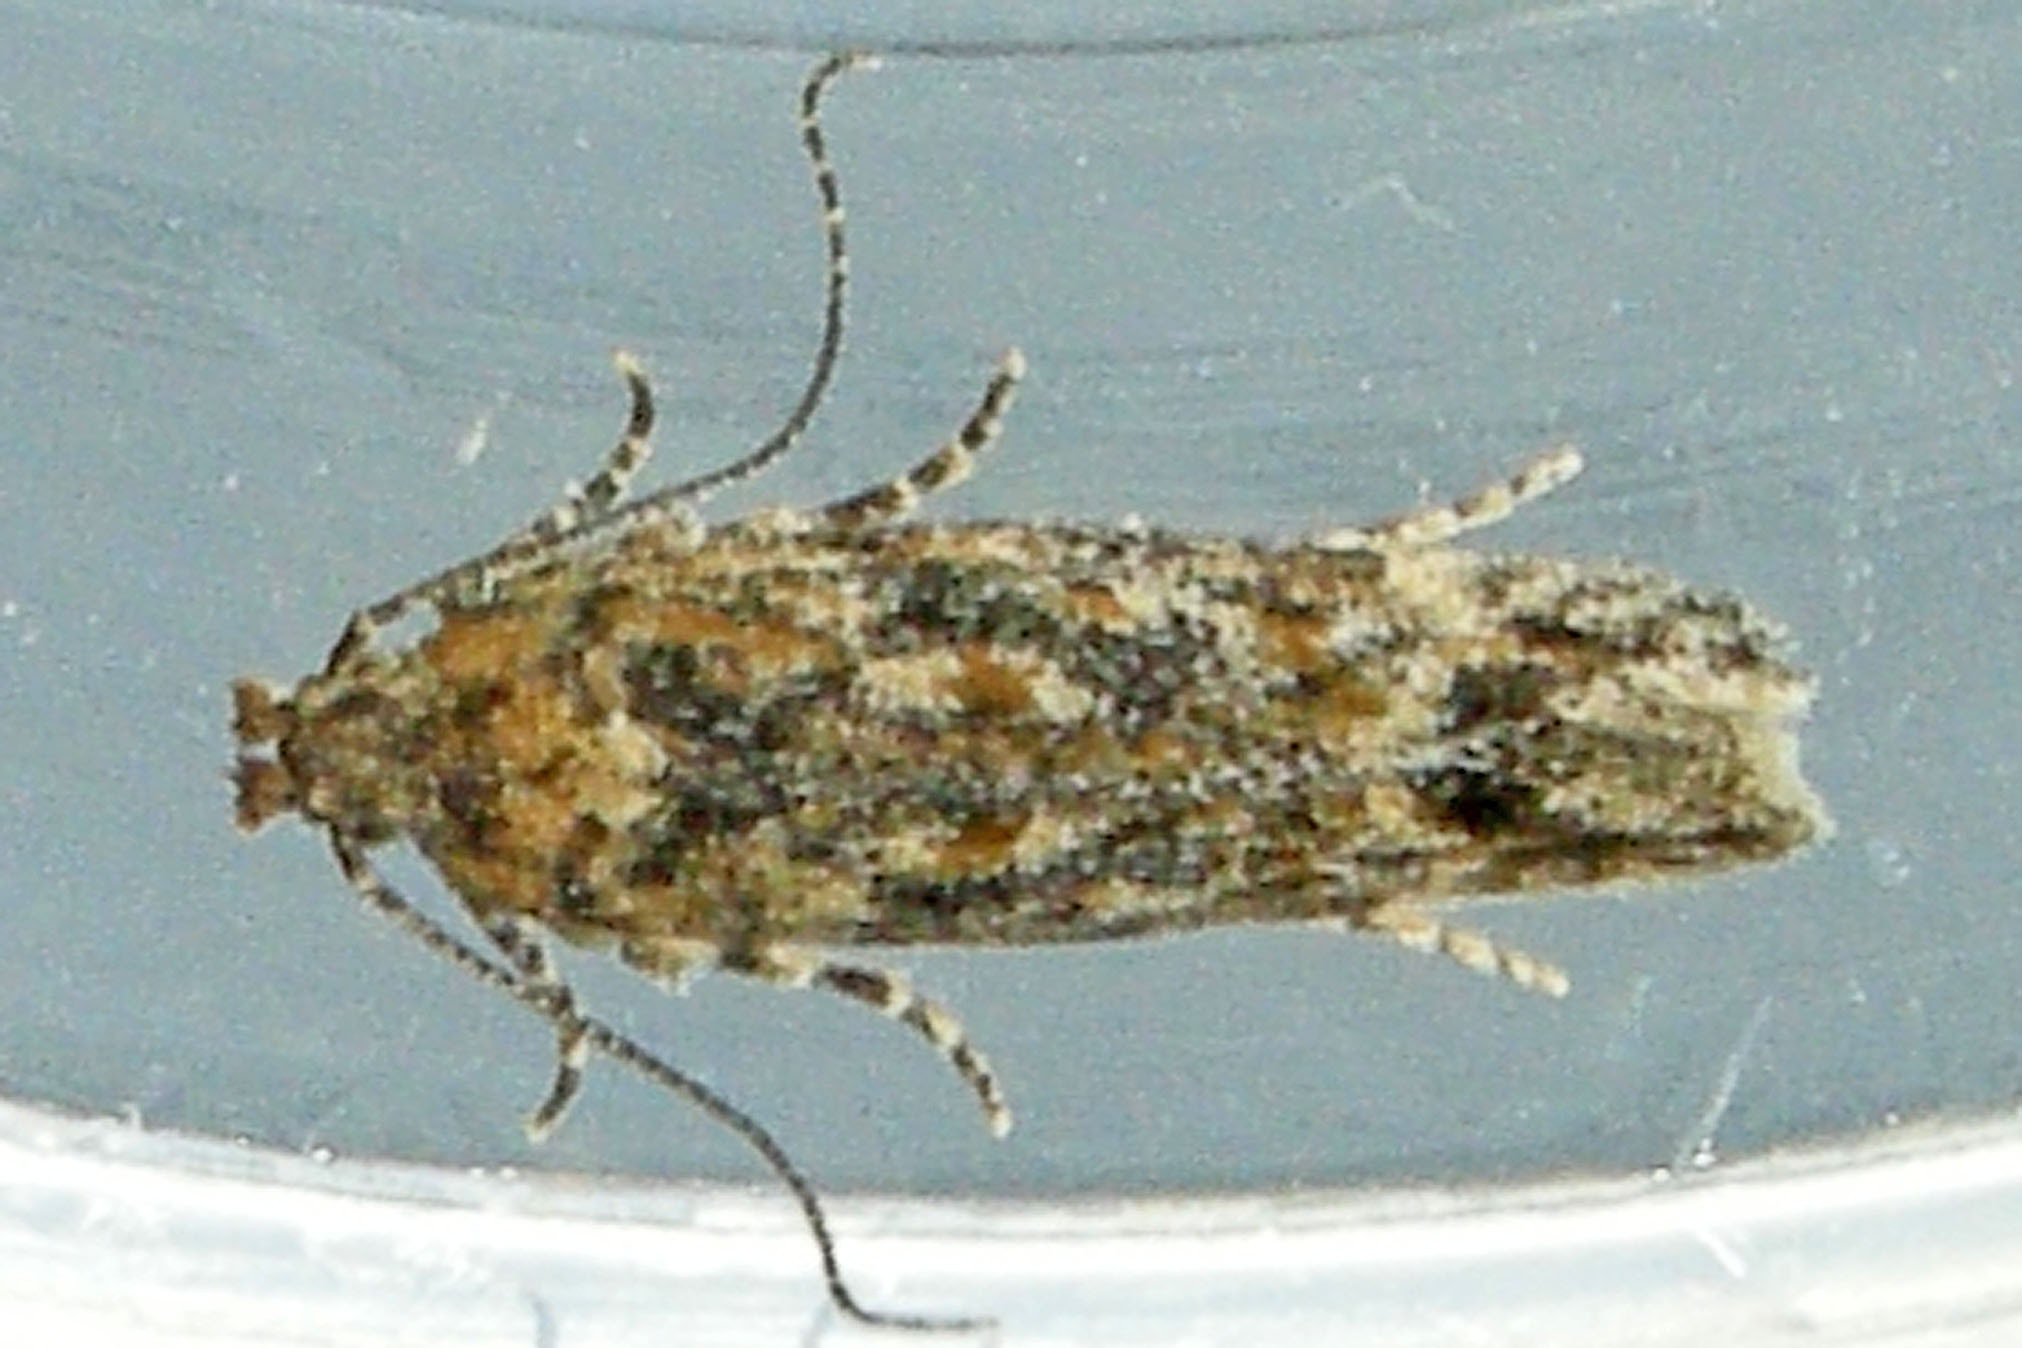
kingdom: Animalia
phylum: Arthropoda
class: Insecta
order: Lepidoptera
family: Gelechiidae
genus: Symmetrischema
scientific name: Symmetrischema pallidochrella
